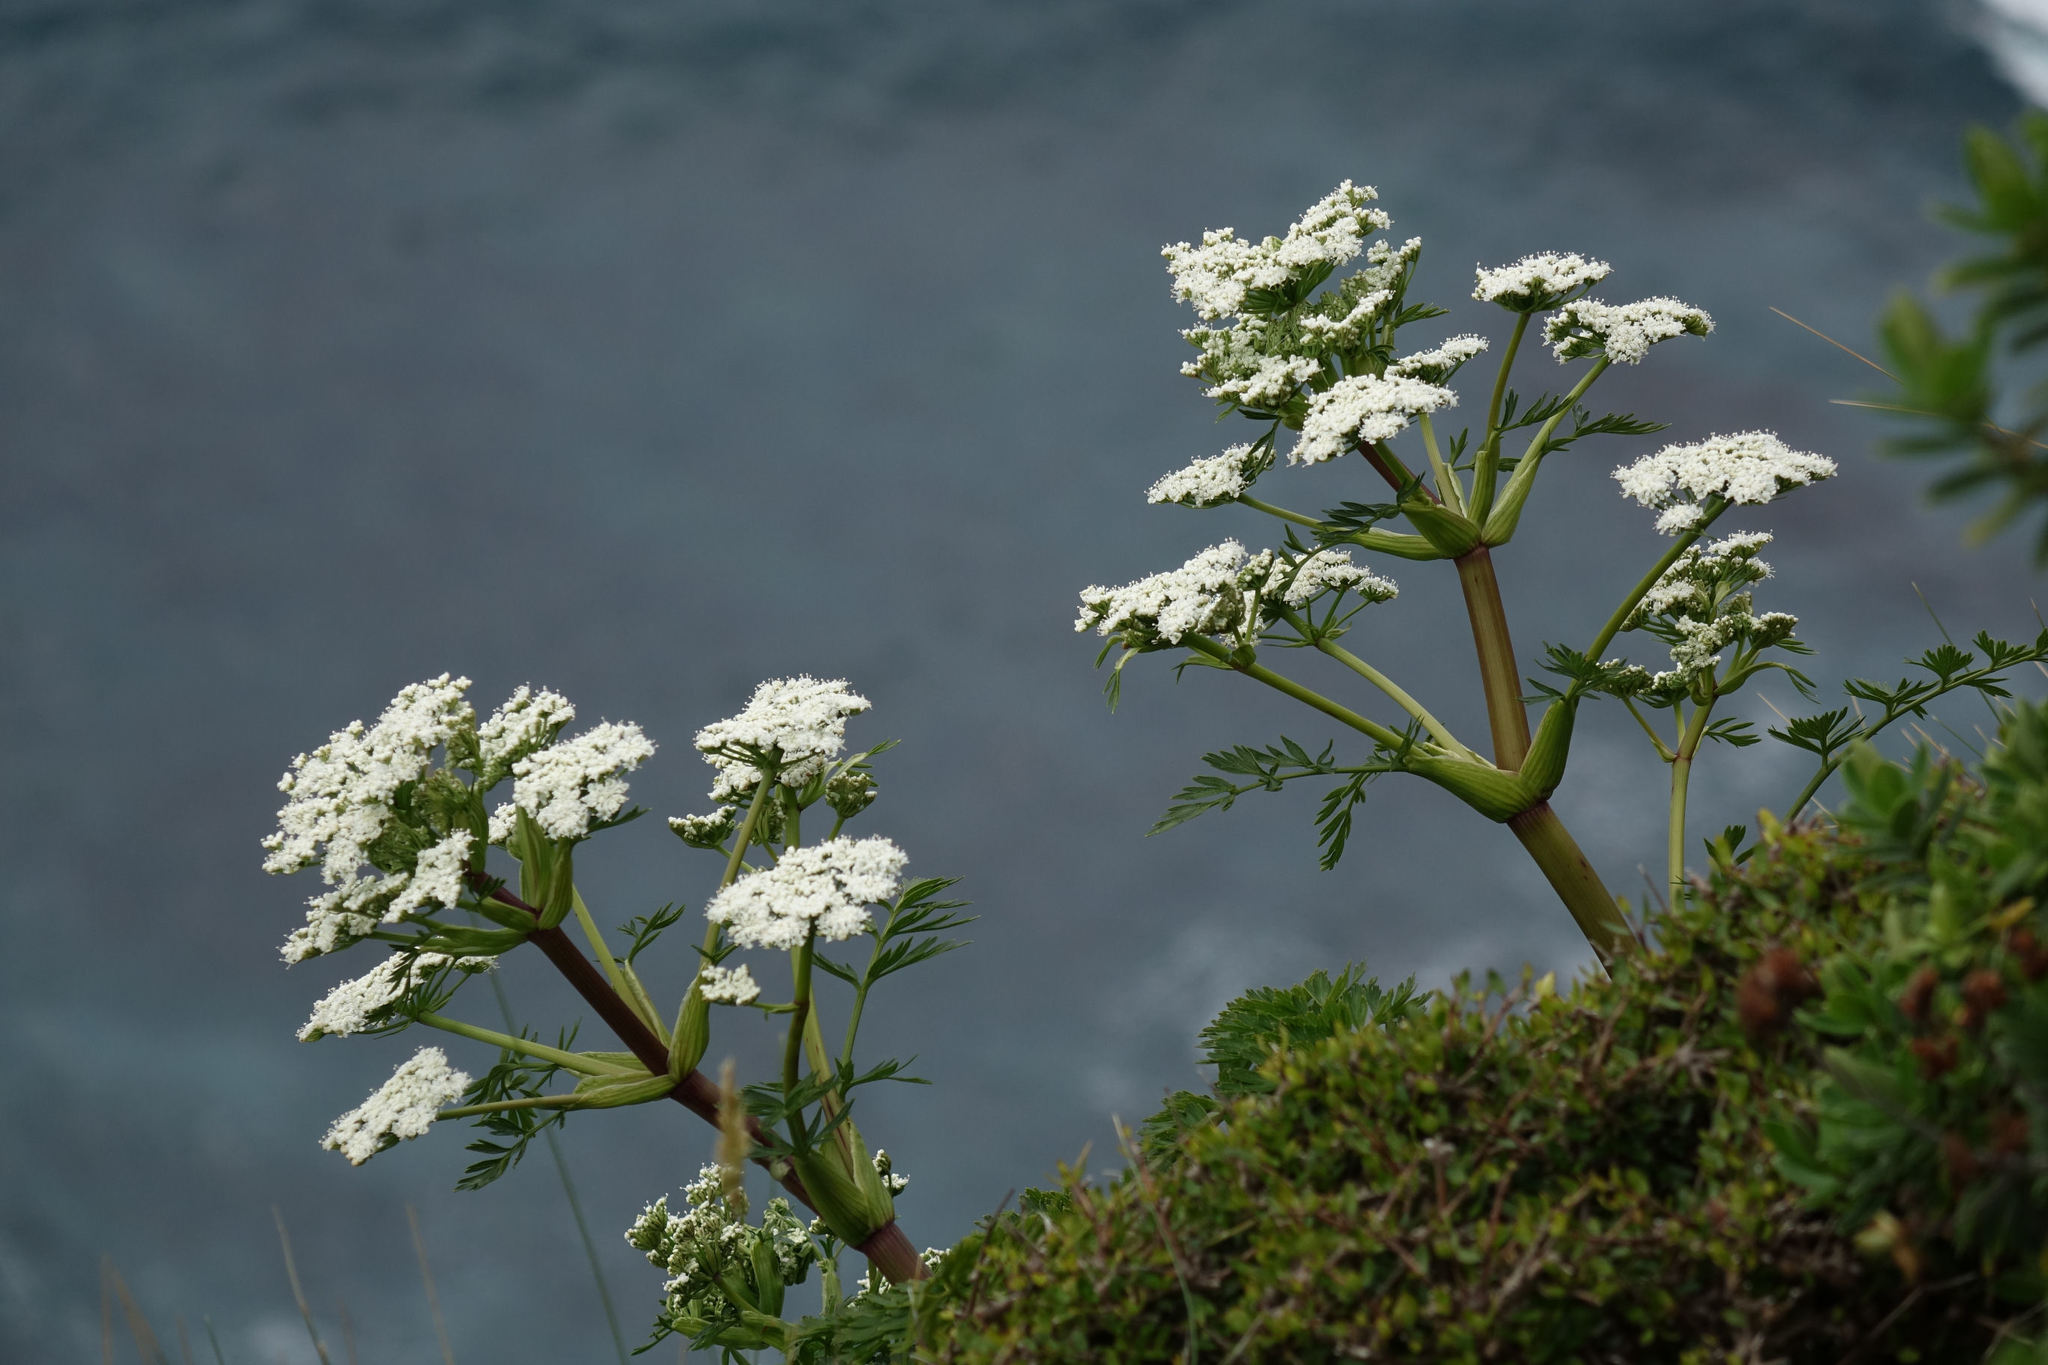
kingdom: Plantae
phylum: Tracheophyta
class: Magnoliopsida
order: Apiales
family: Apiaceae
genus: Anisotome
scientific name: Anisotome lyallii
